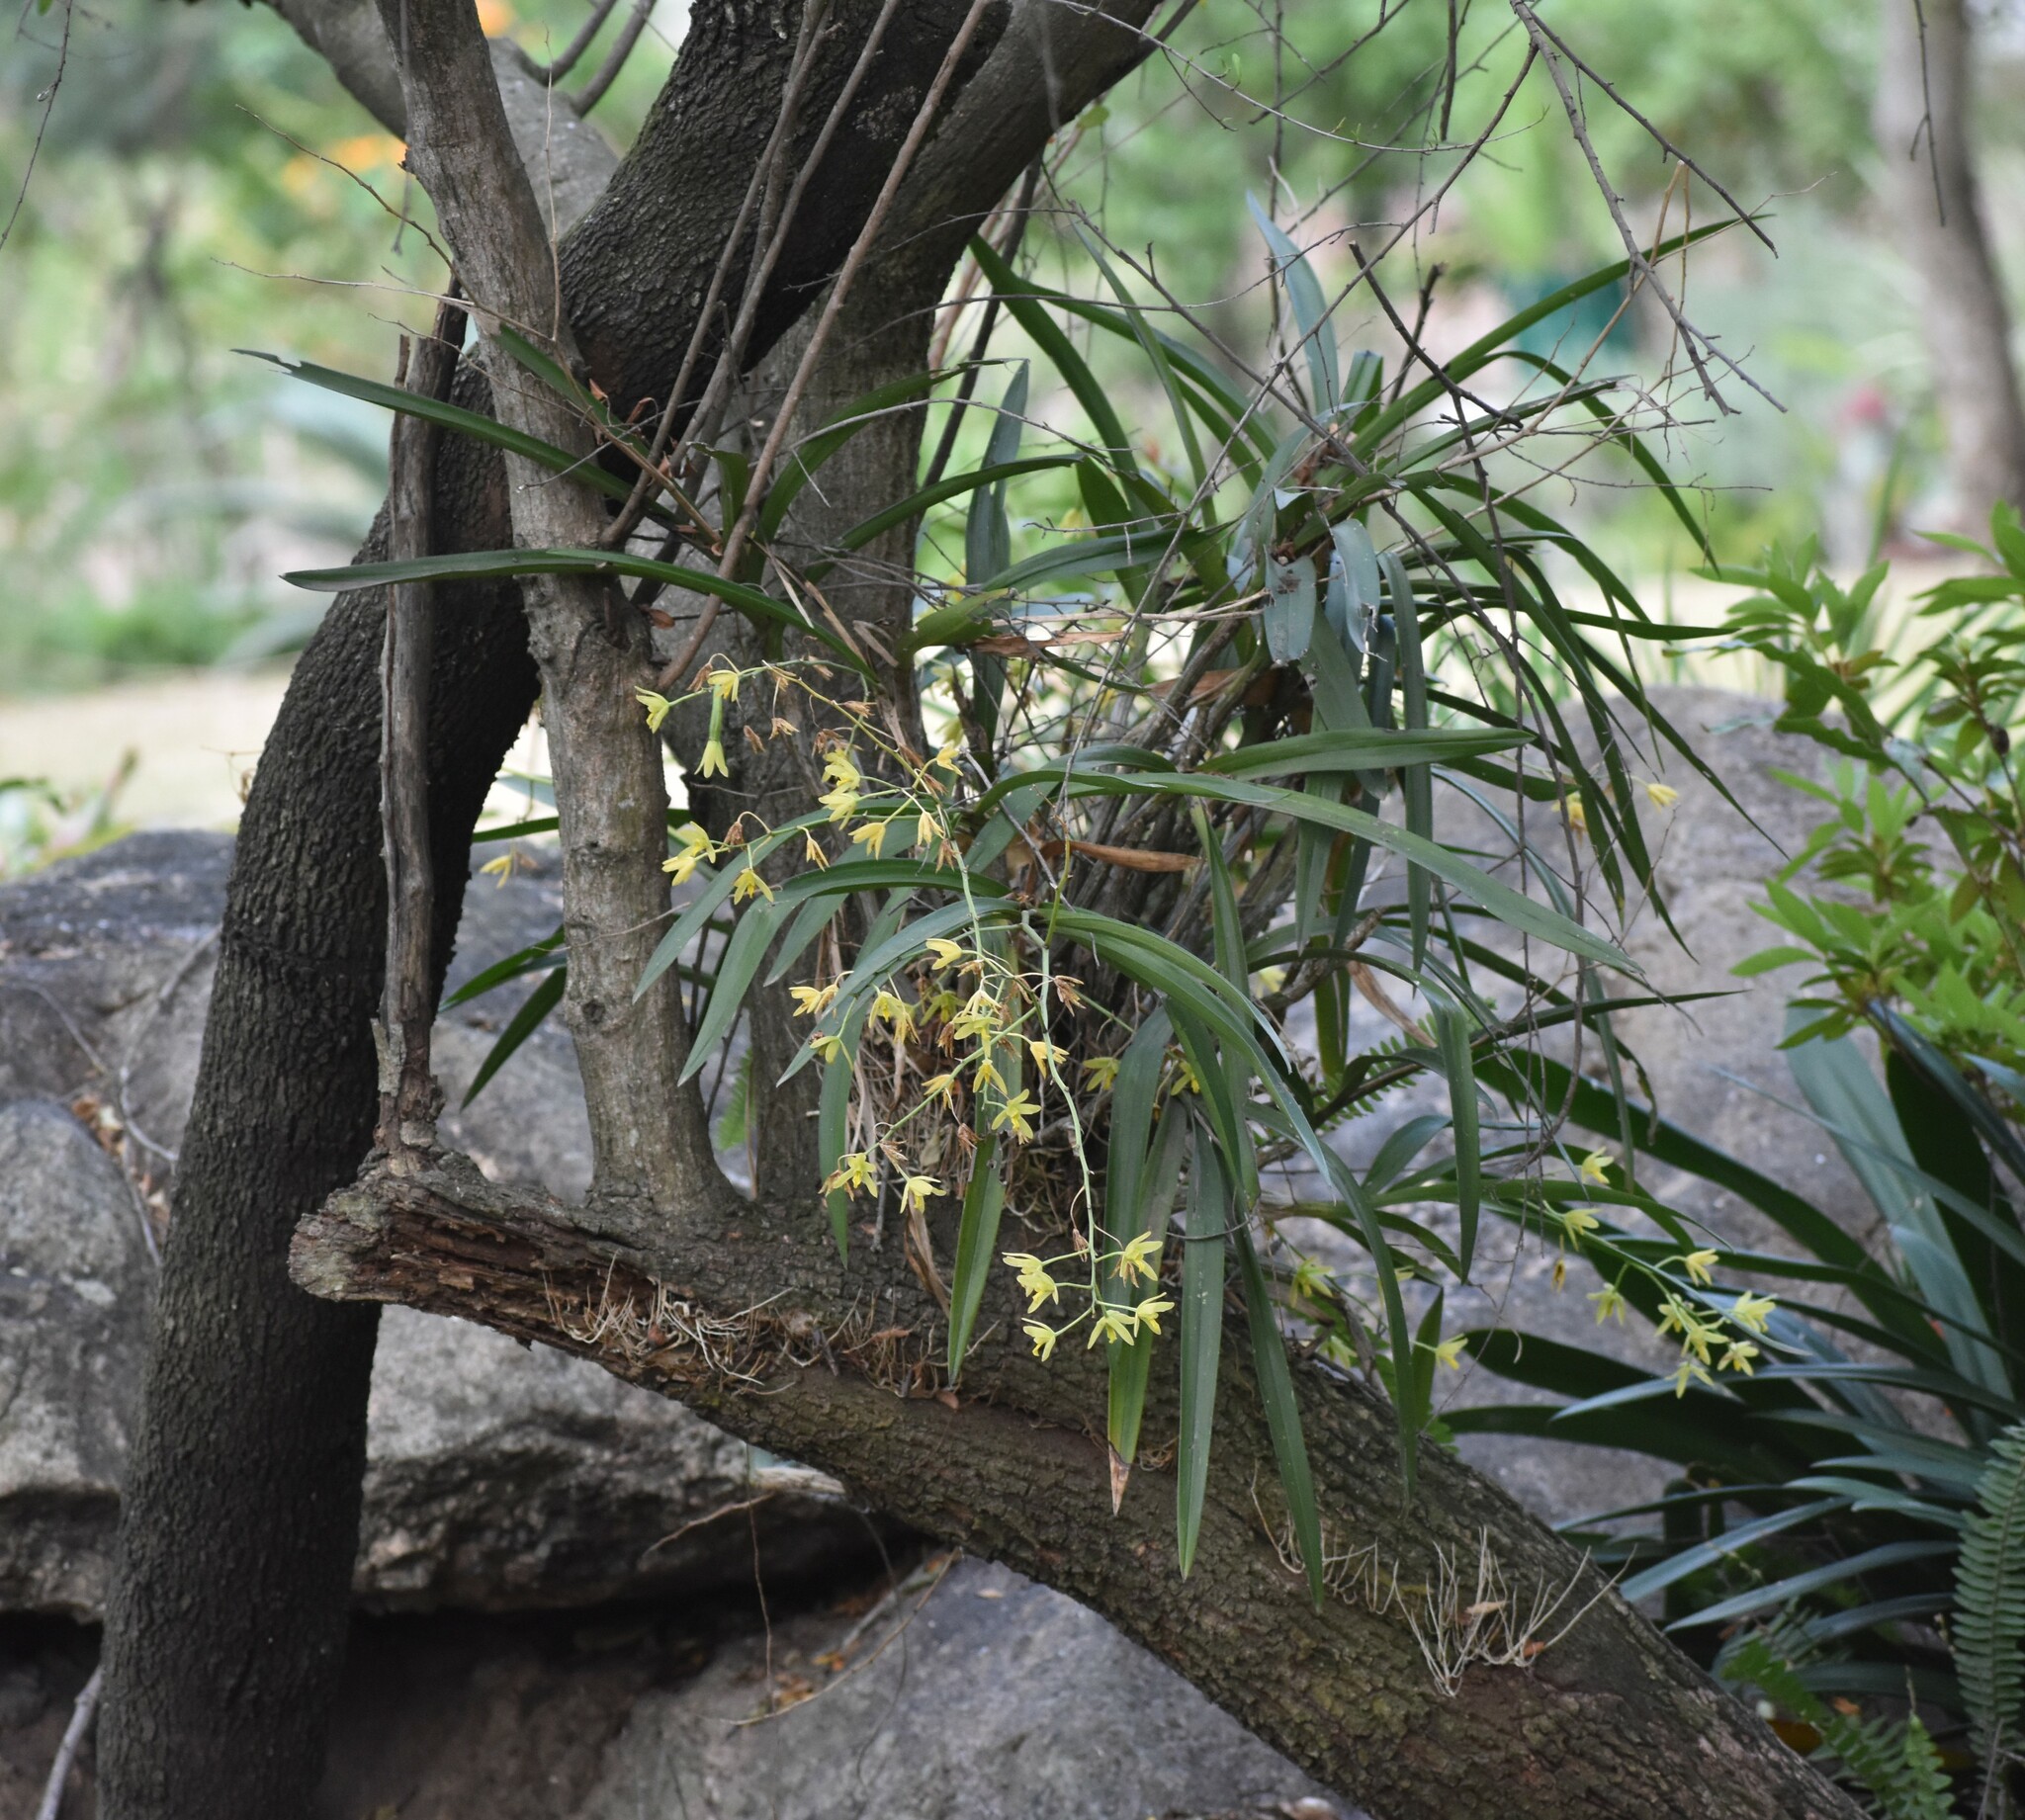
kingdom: Plantae
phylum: Tracheophyta
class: Liliopsida
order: Asparagales
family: Orchidaceae
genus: Ansellia
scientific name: Ansellia africana
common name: African ansellia
